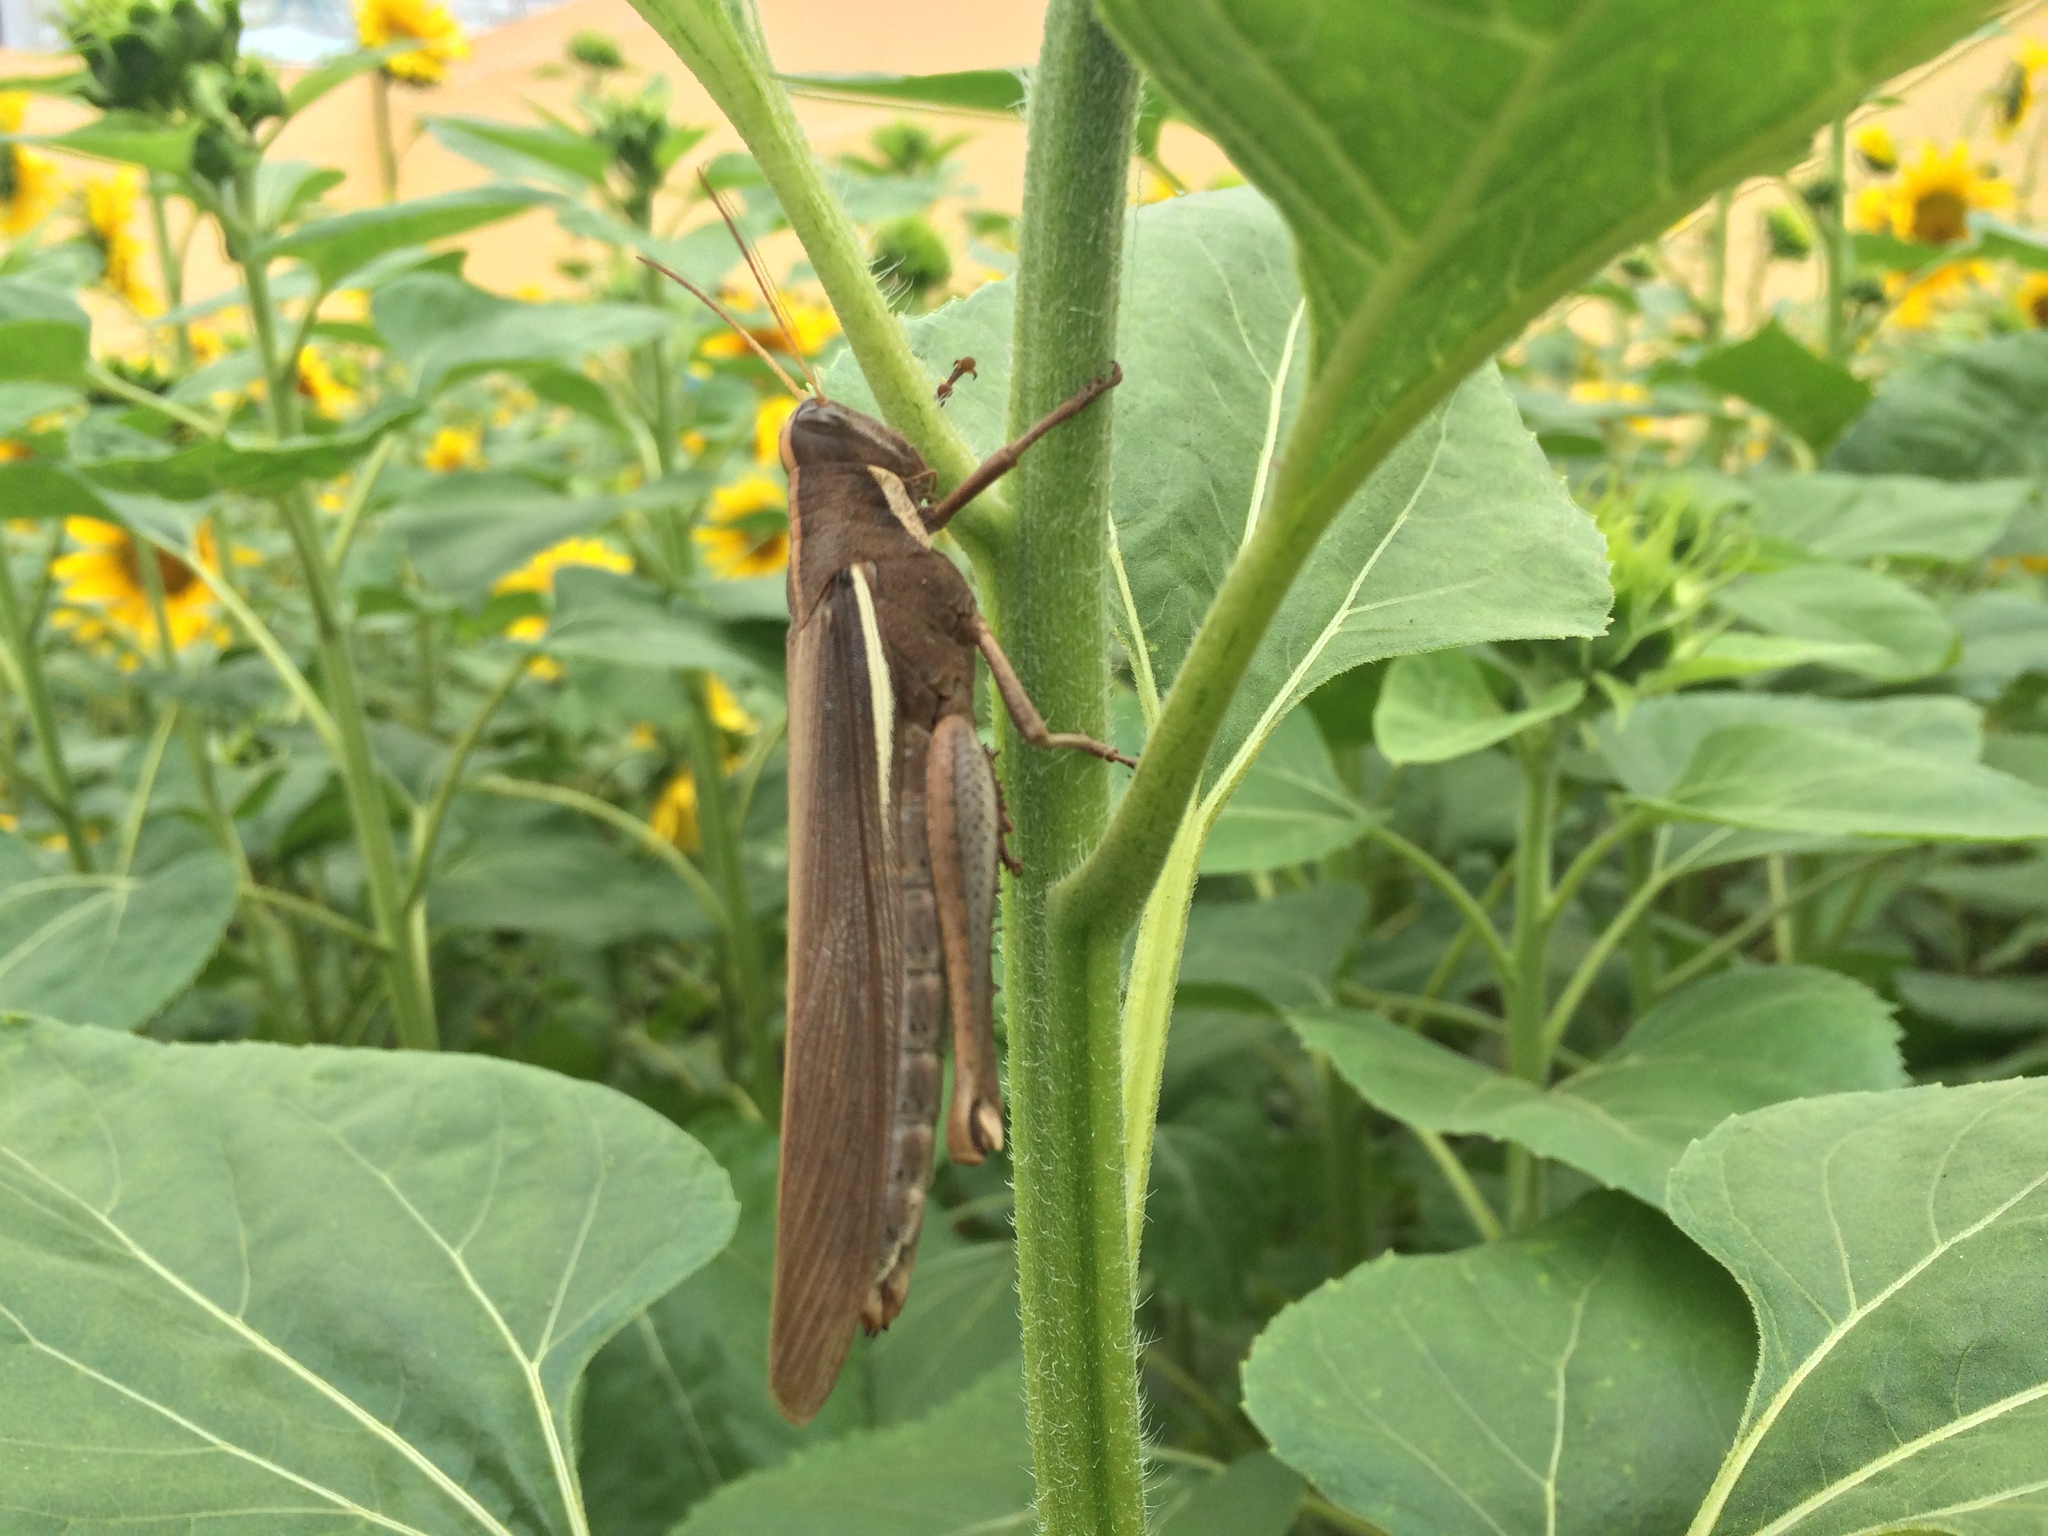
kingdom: Animalia
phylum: Arthropoda
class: Insecta
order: Orthoptera
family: Acrididae
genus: Schistocerca
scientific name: Schistocerca flavofasciata
